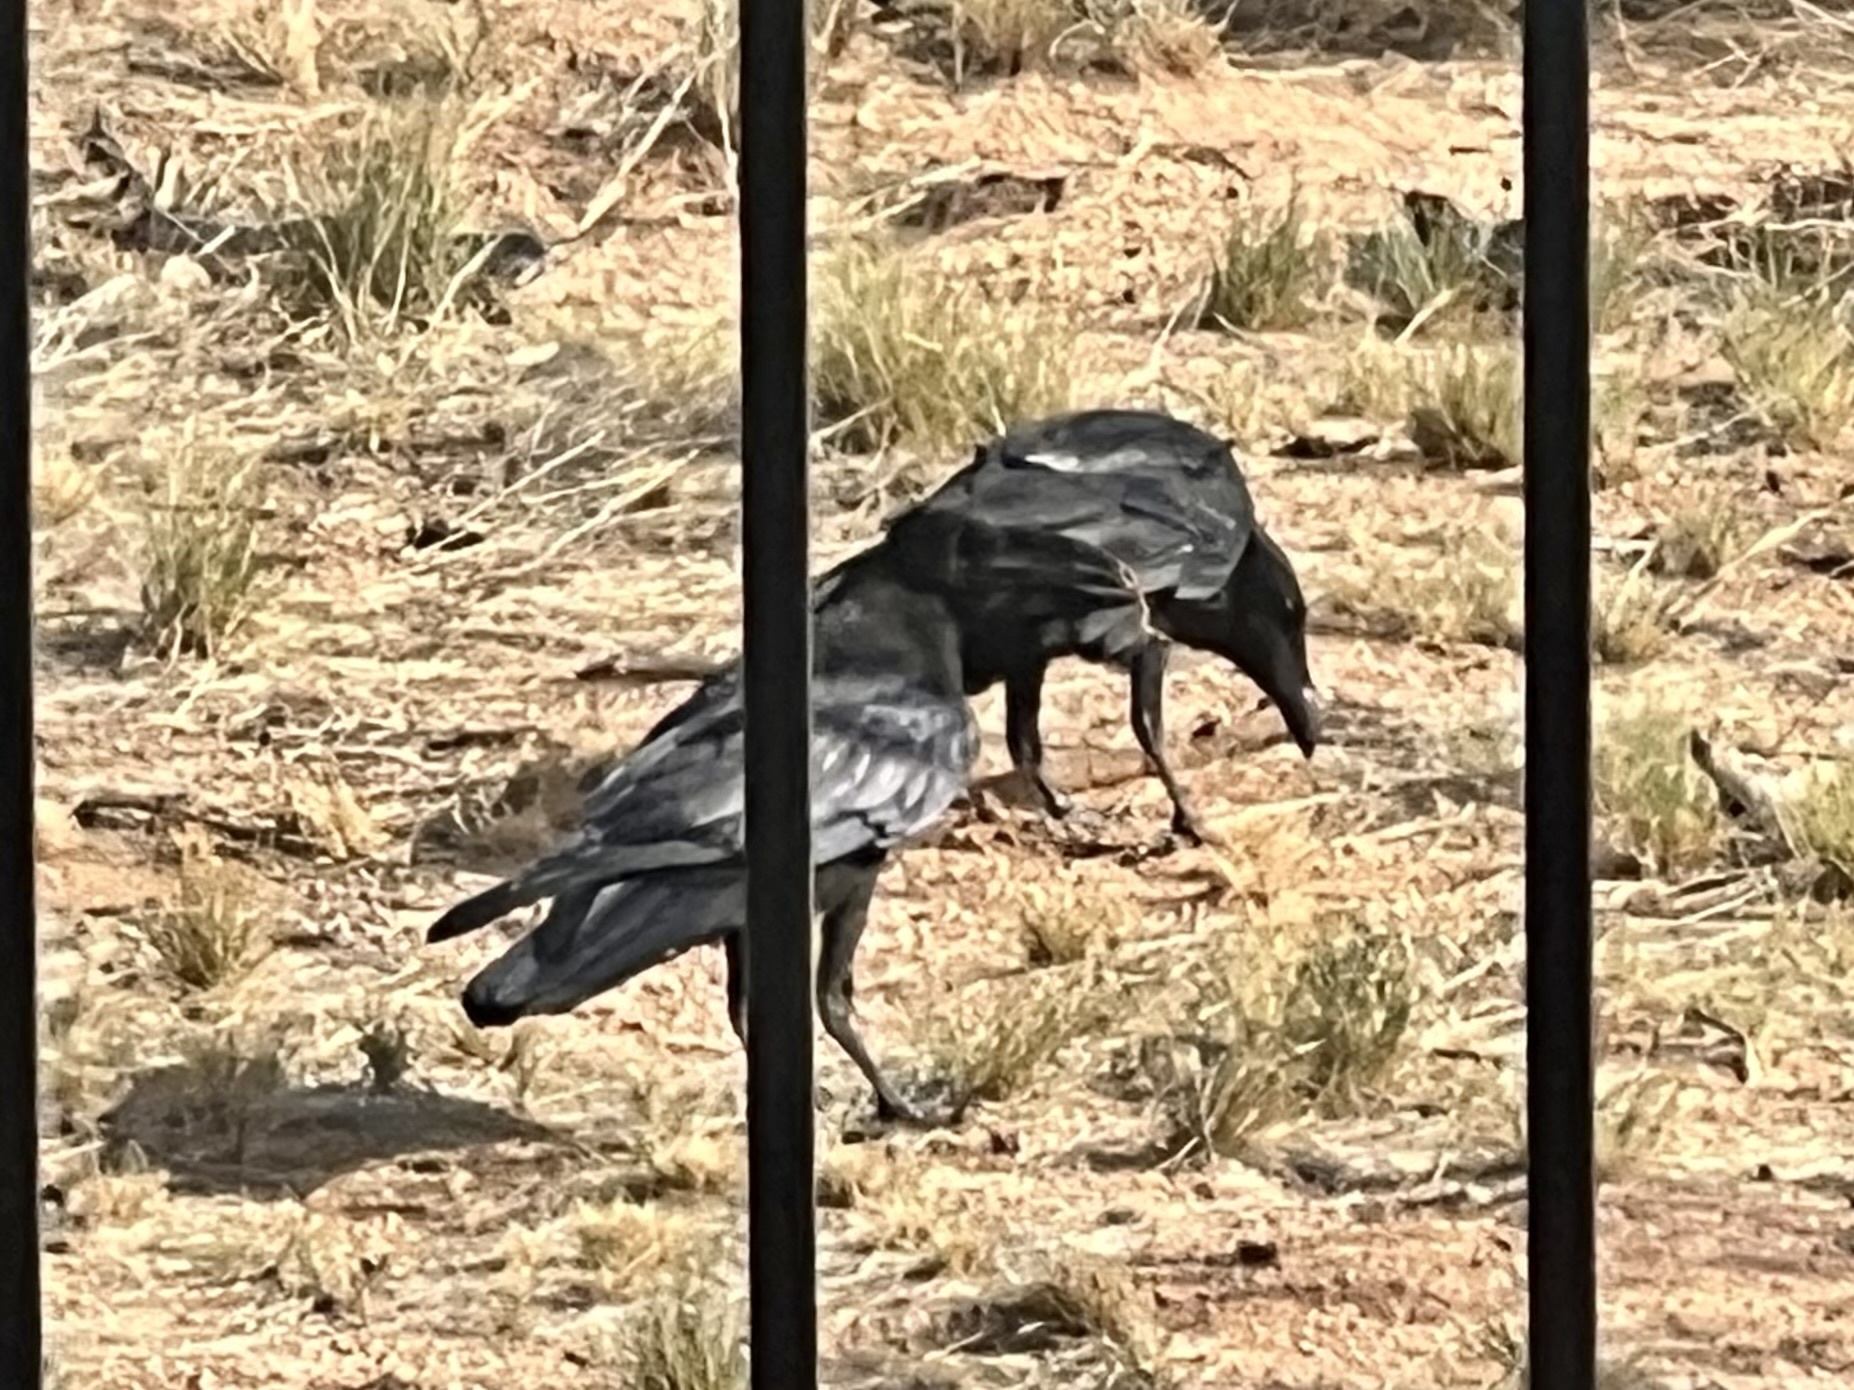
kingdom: Animalia
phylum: Chordata
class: Aves
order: Passeriformes
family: Corvidae
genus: Corvus
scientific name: Corvus corax
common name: Common raven
